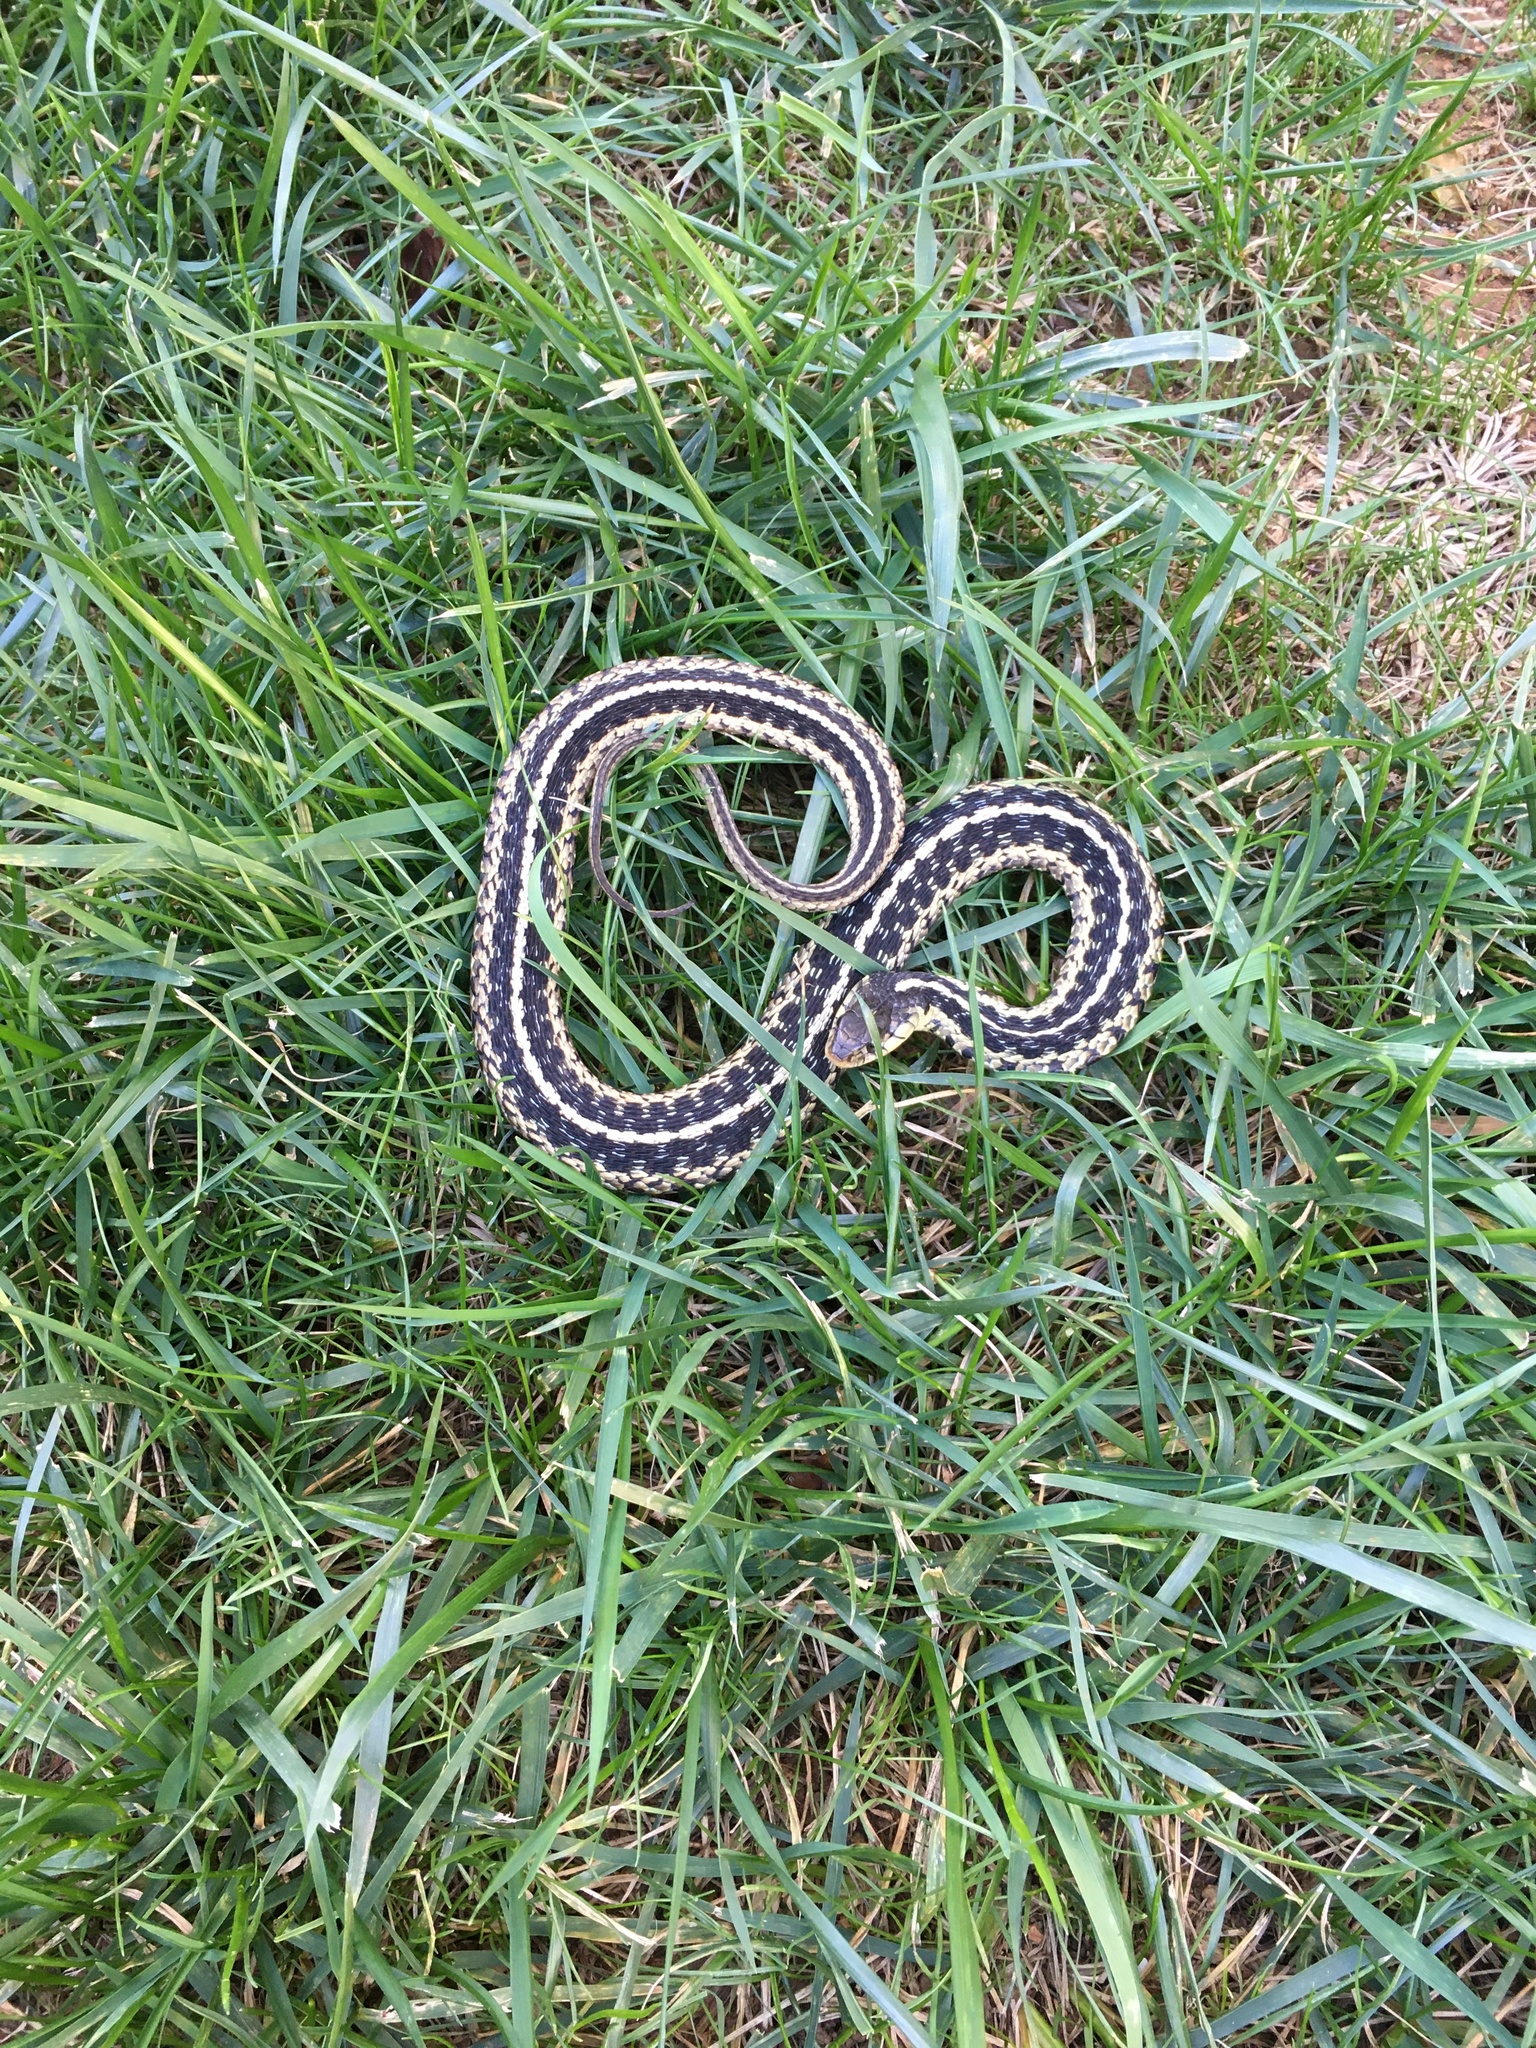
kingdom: Animalia
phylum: Chordata
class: Squamata
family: Colubridae
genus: Thamnophis
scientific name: Thamnophis sirtalis
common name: Common garter snake
